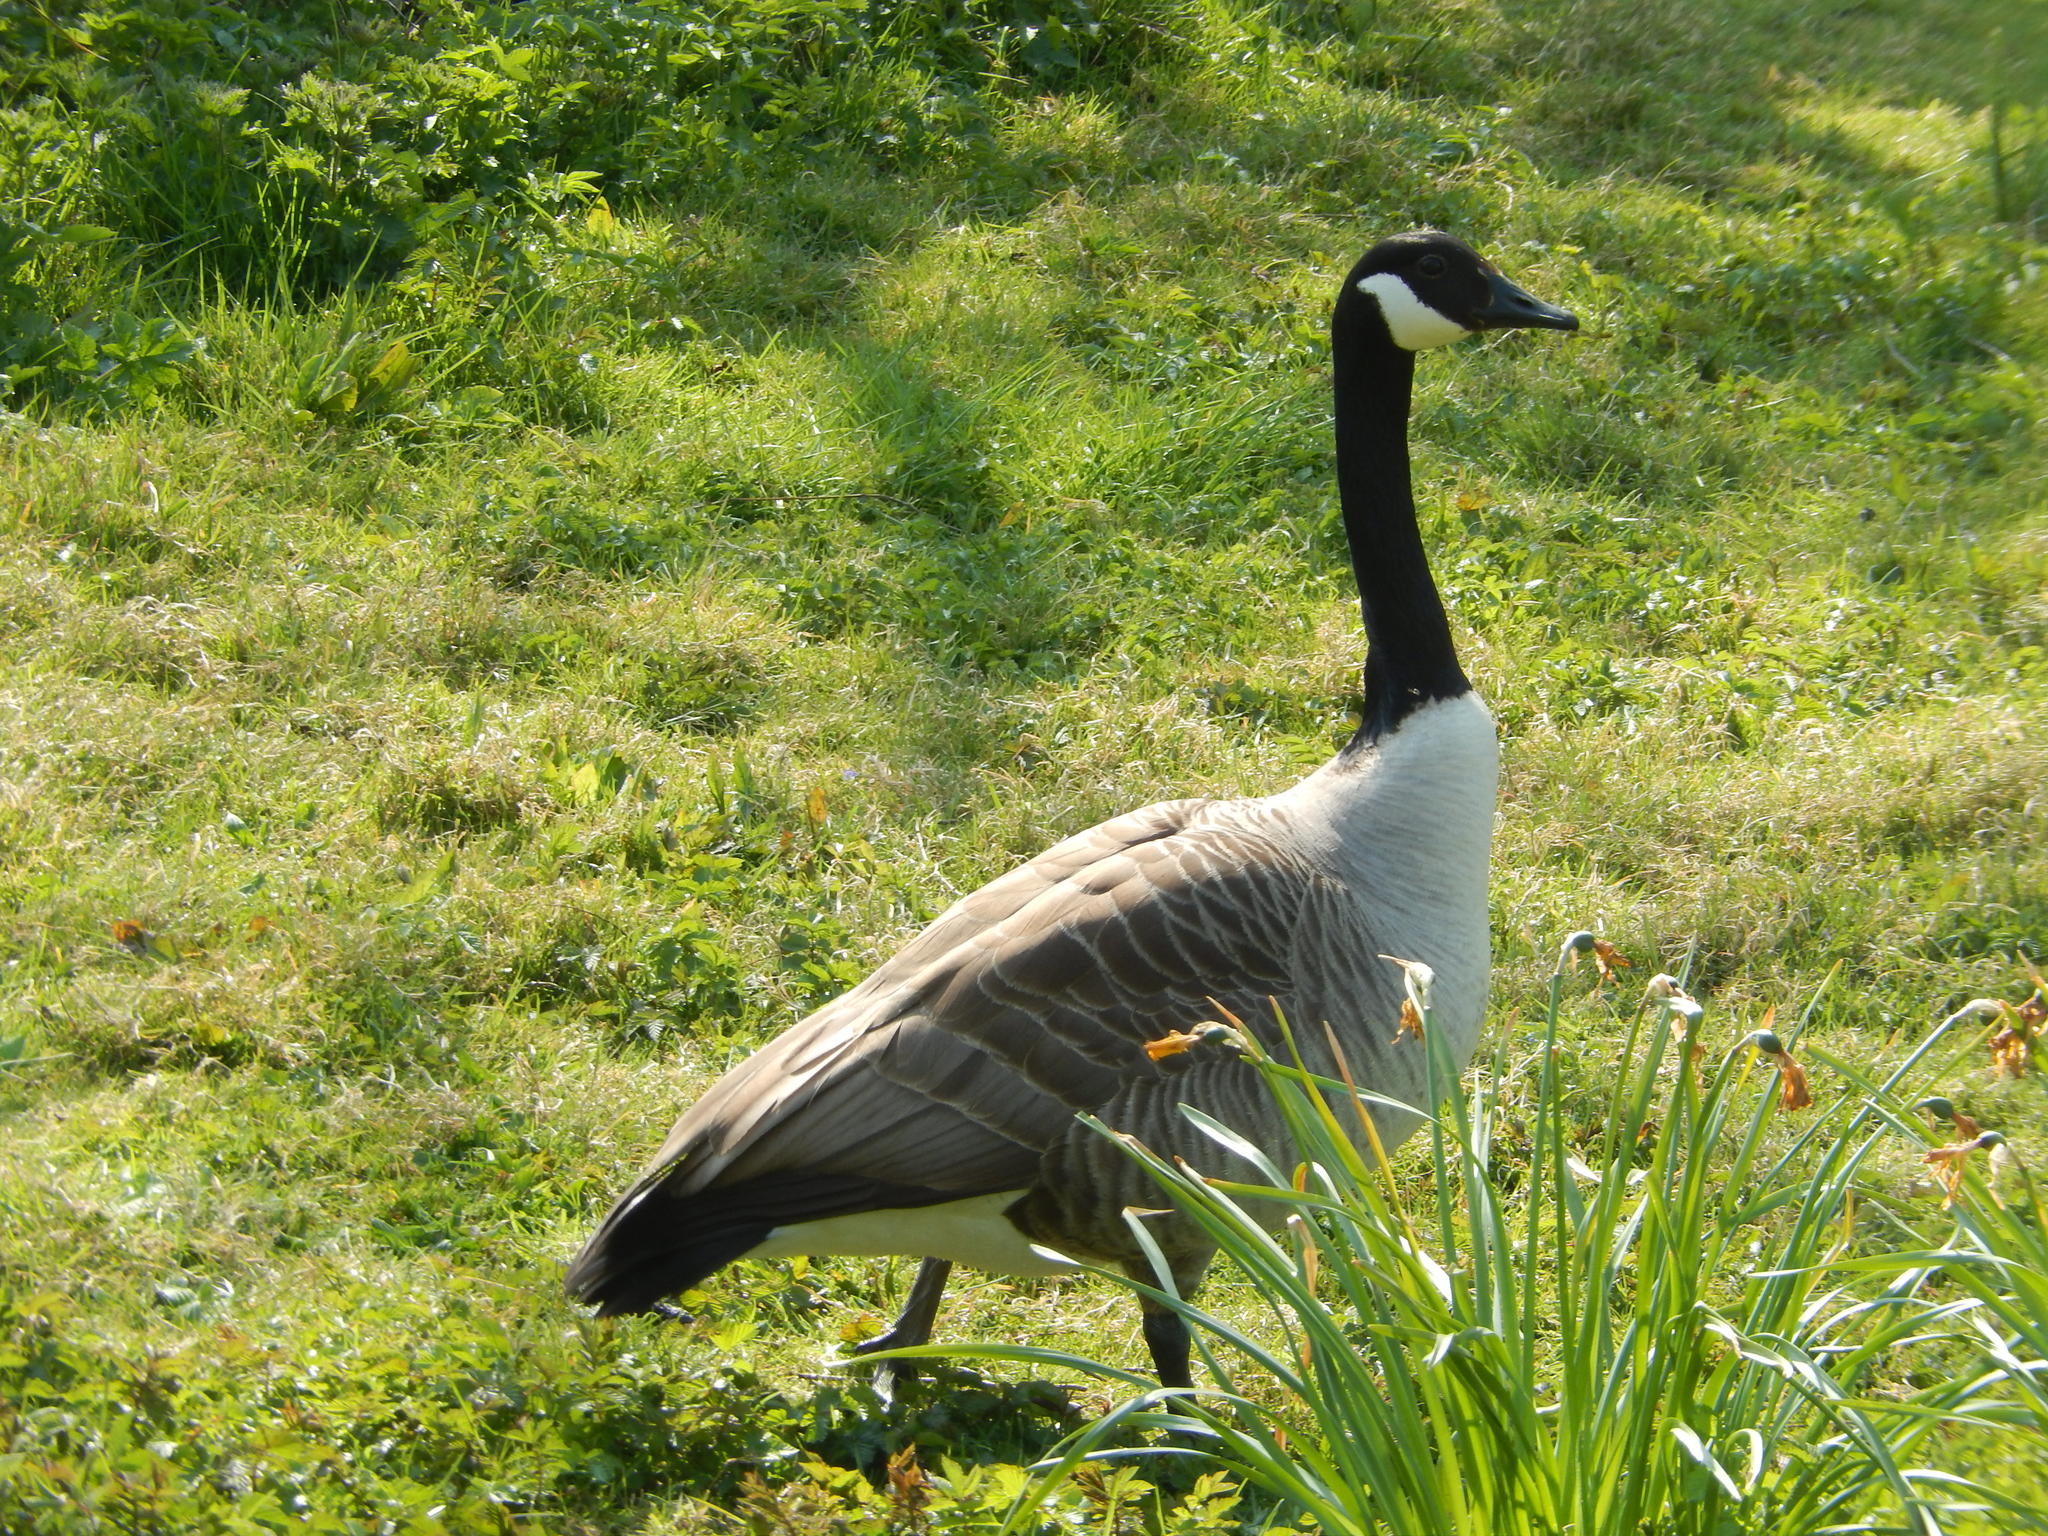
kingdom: Animalia
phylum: Chordata
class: Aves
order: Anseriformes
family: Anatidae
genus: Branta
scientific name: Branta canadensis
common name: Canada goose
